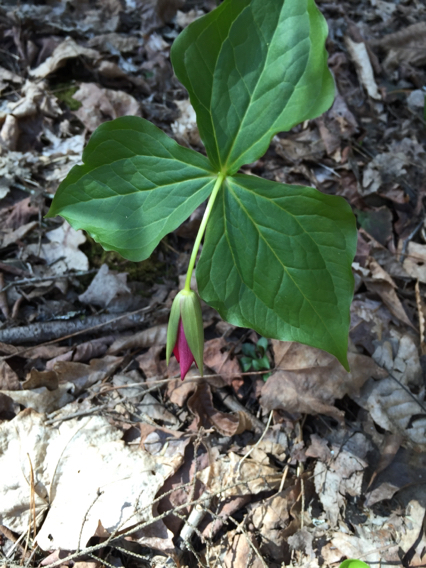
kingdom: Plantae
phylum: Tracheophyta
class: Liliopsida
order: Liliales
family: Melanthiaceae
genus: Trillium
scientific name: Trillium erectum
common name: Purple trillium
